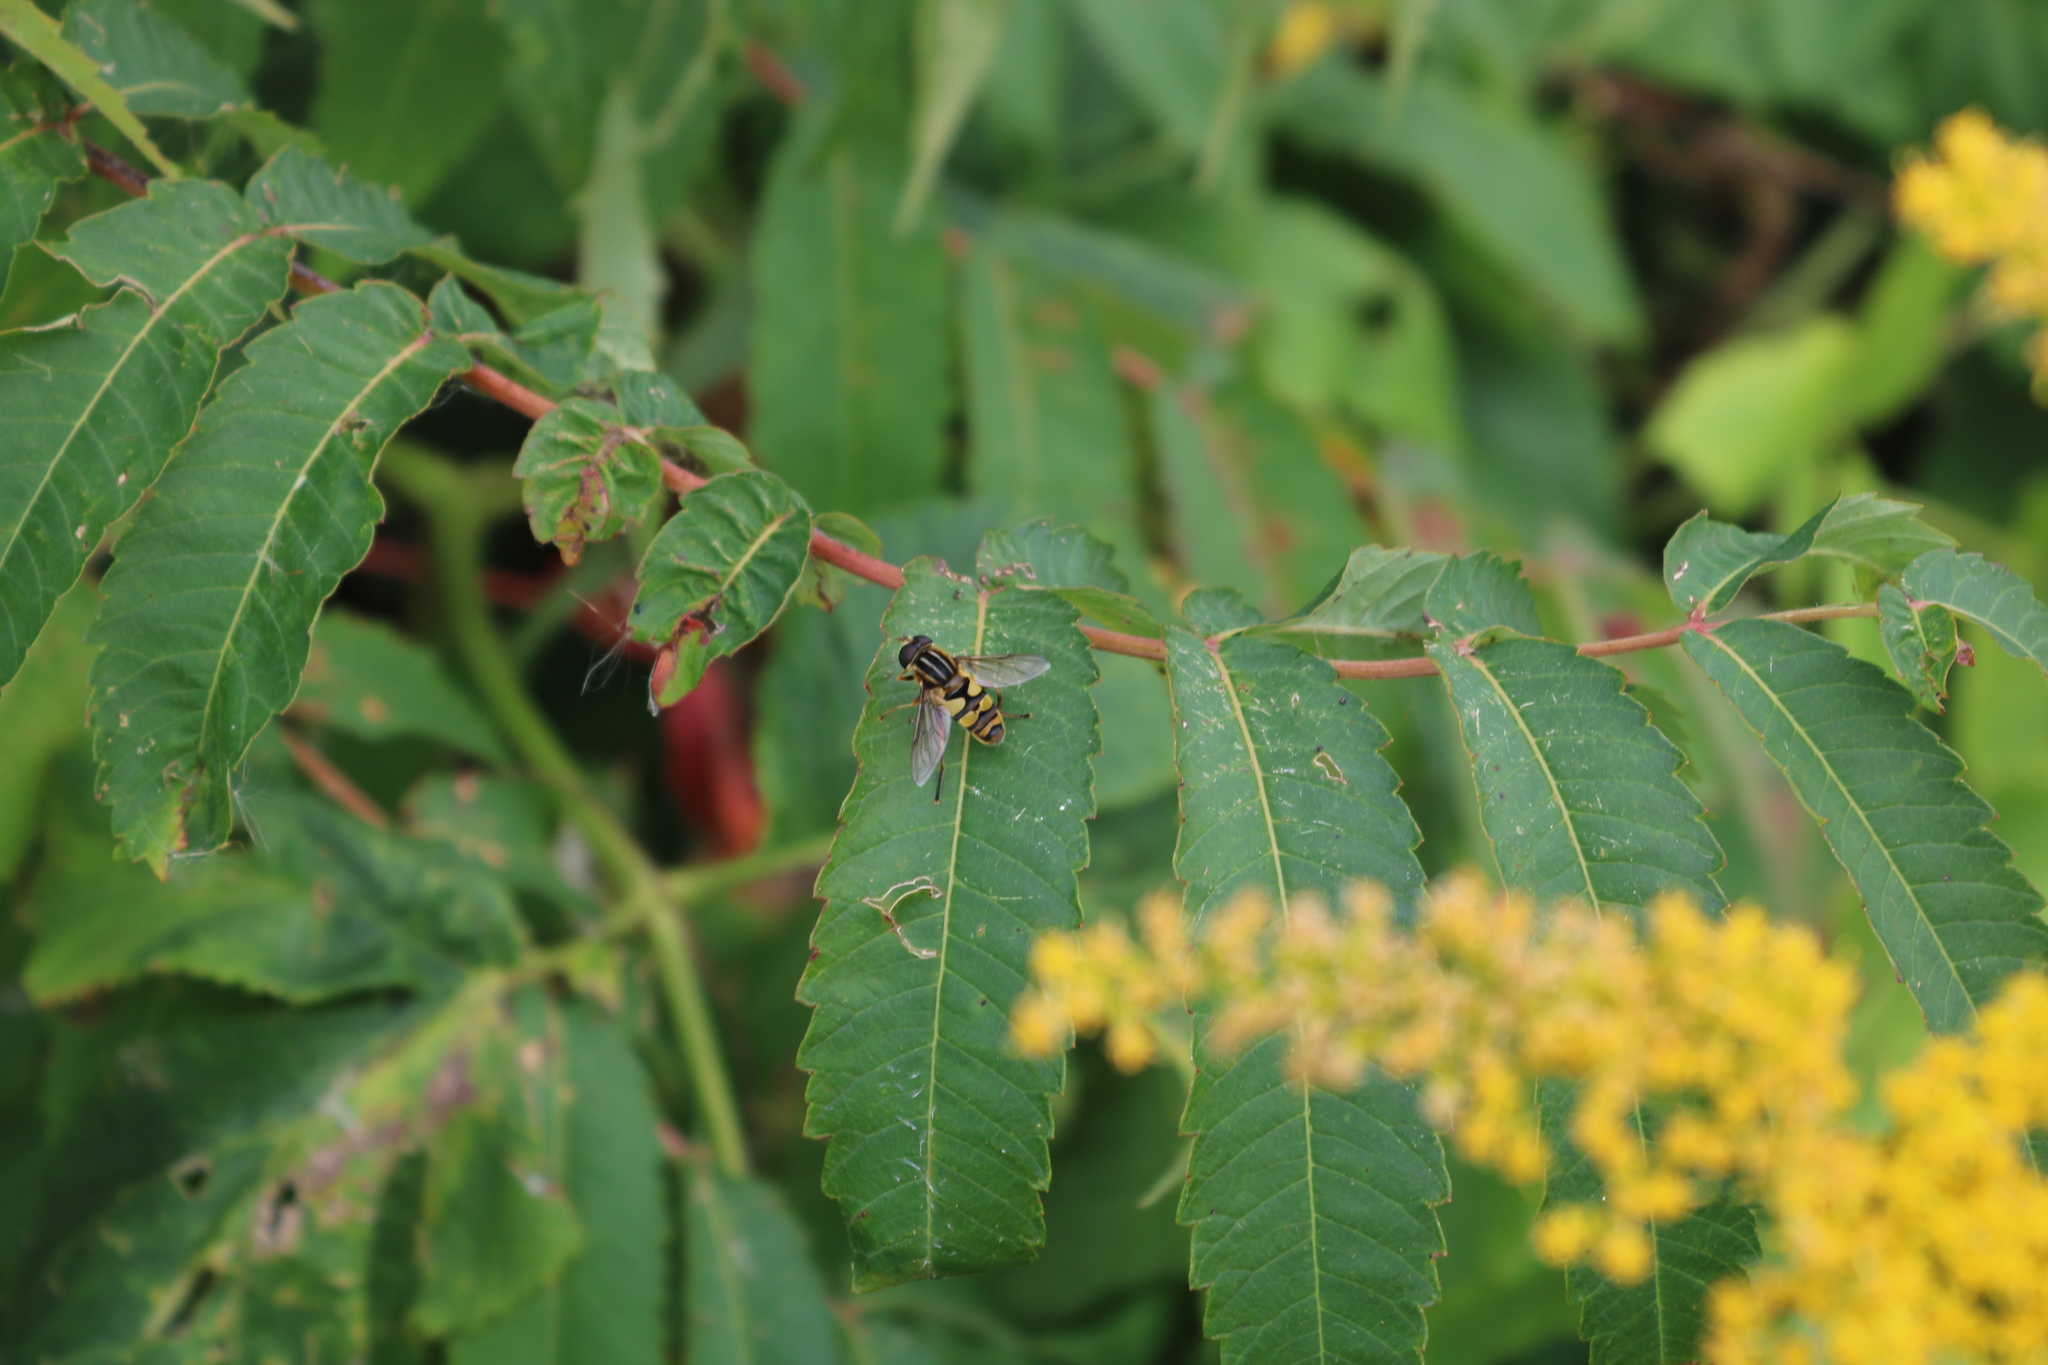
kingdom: Animalia
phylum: Arthropoda
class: Insecta
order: Diptera
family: Syrphidae
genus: Helophilus
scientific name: Helophilus fasciatus
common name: Narrow-headed marsh fly
